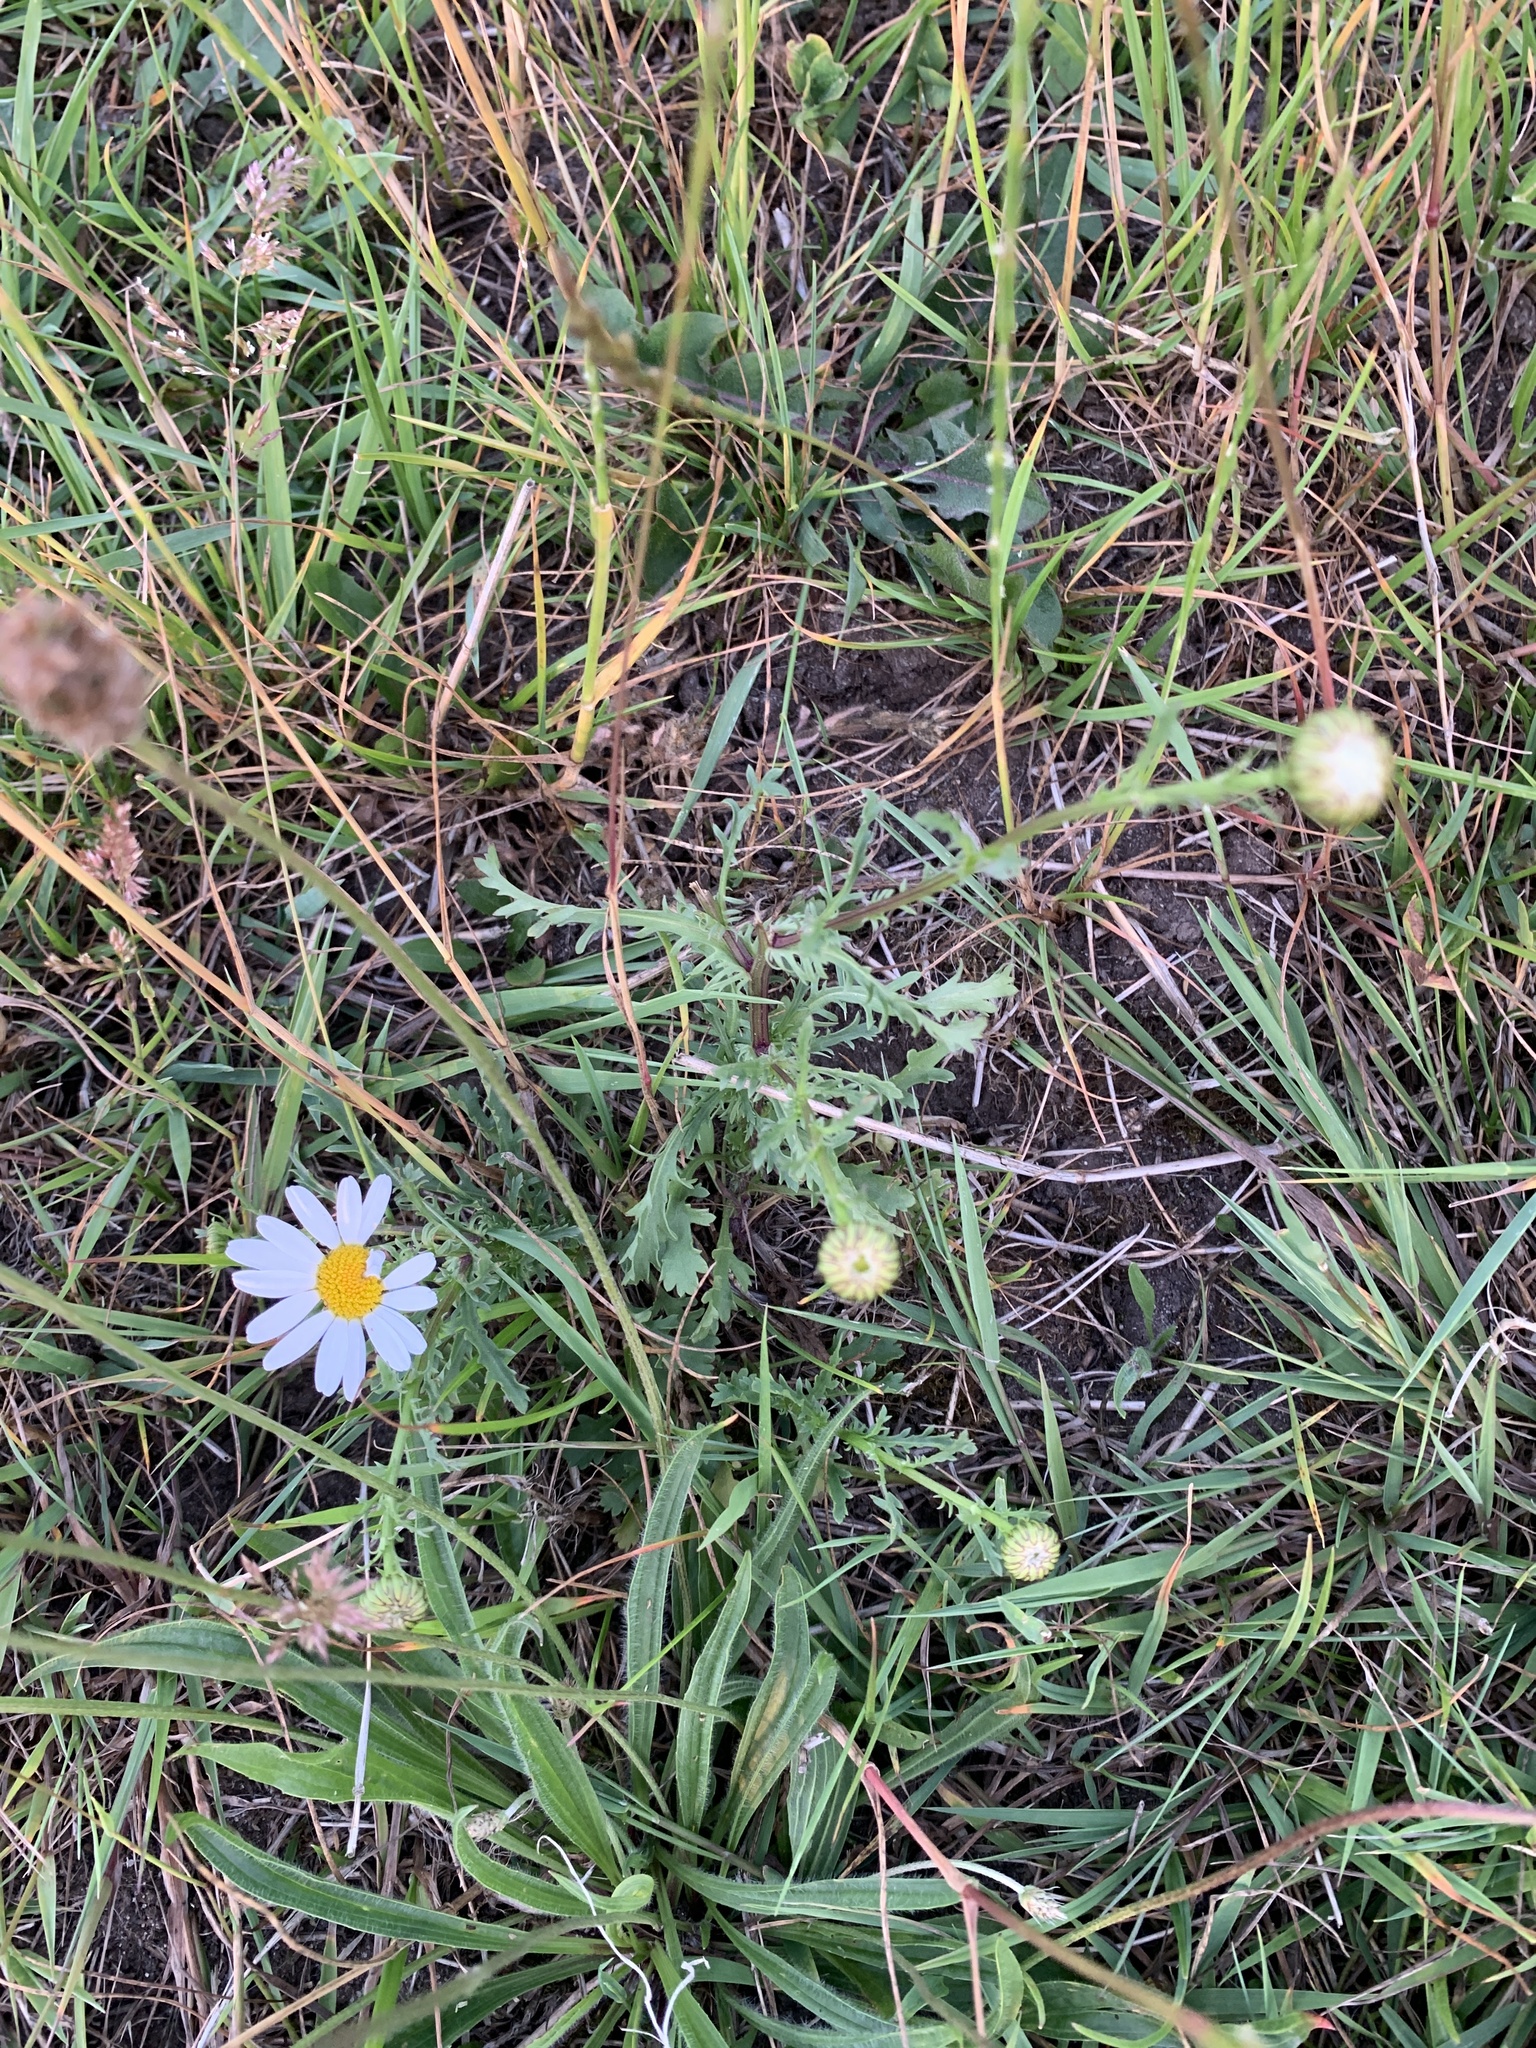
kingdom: Plantae
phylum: Tracheophyta
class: Magnoliopsida
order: Asterales
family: Asteraceae
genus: Leucanthemum
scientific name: Leucanthemum vulgare
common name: Oxeye daisy
